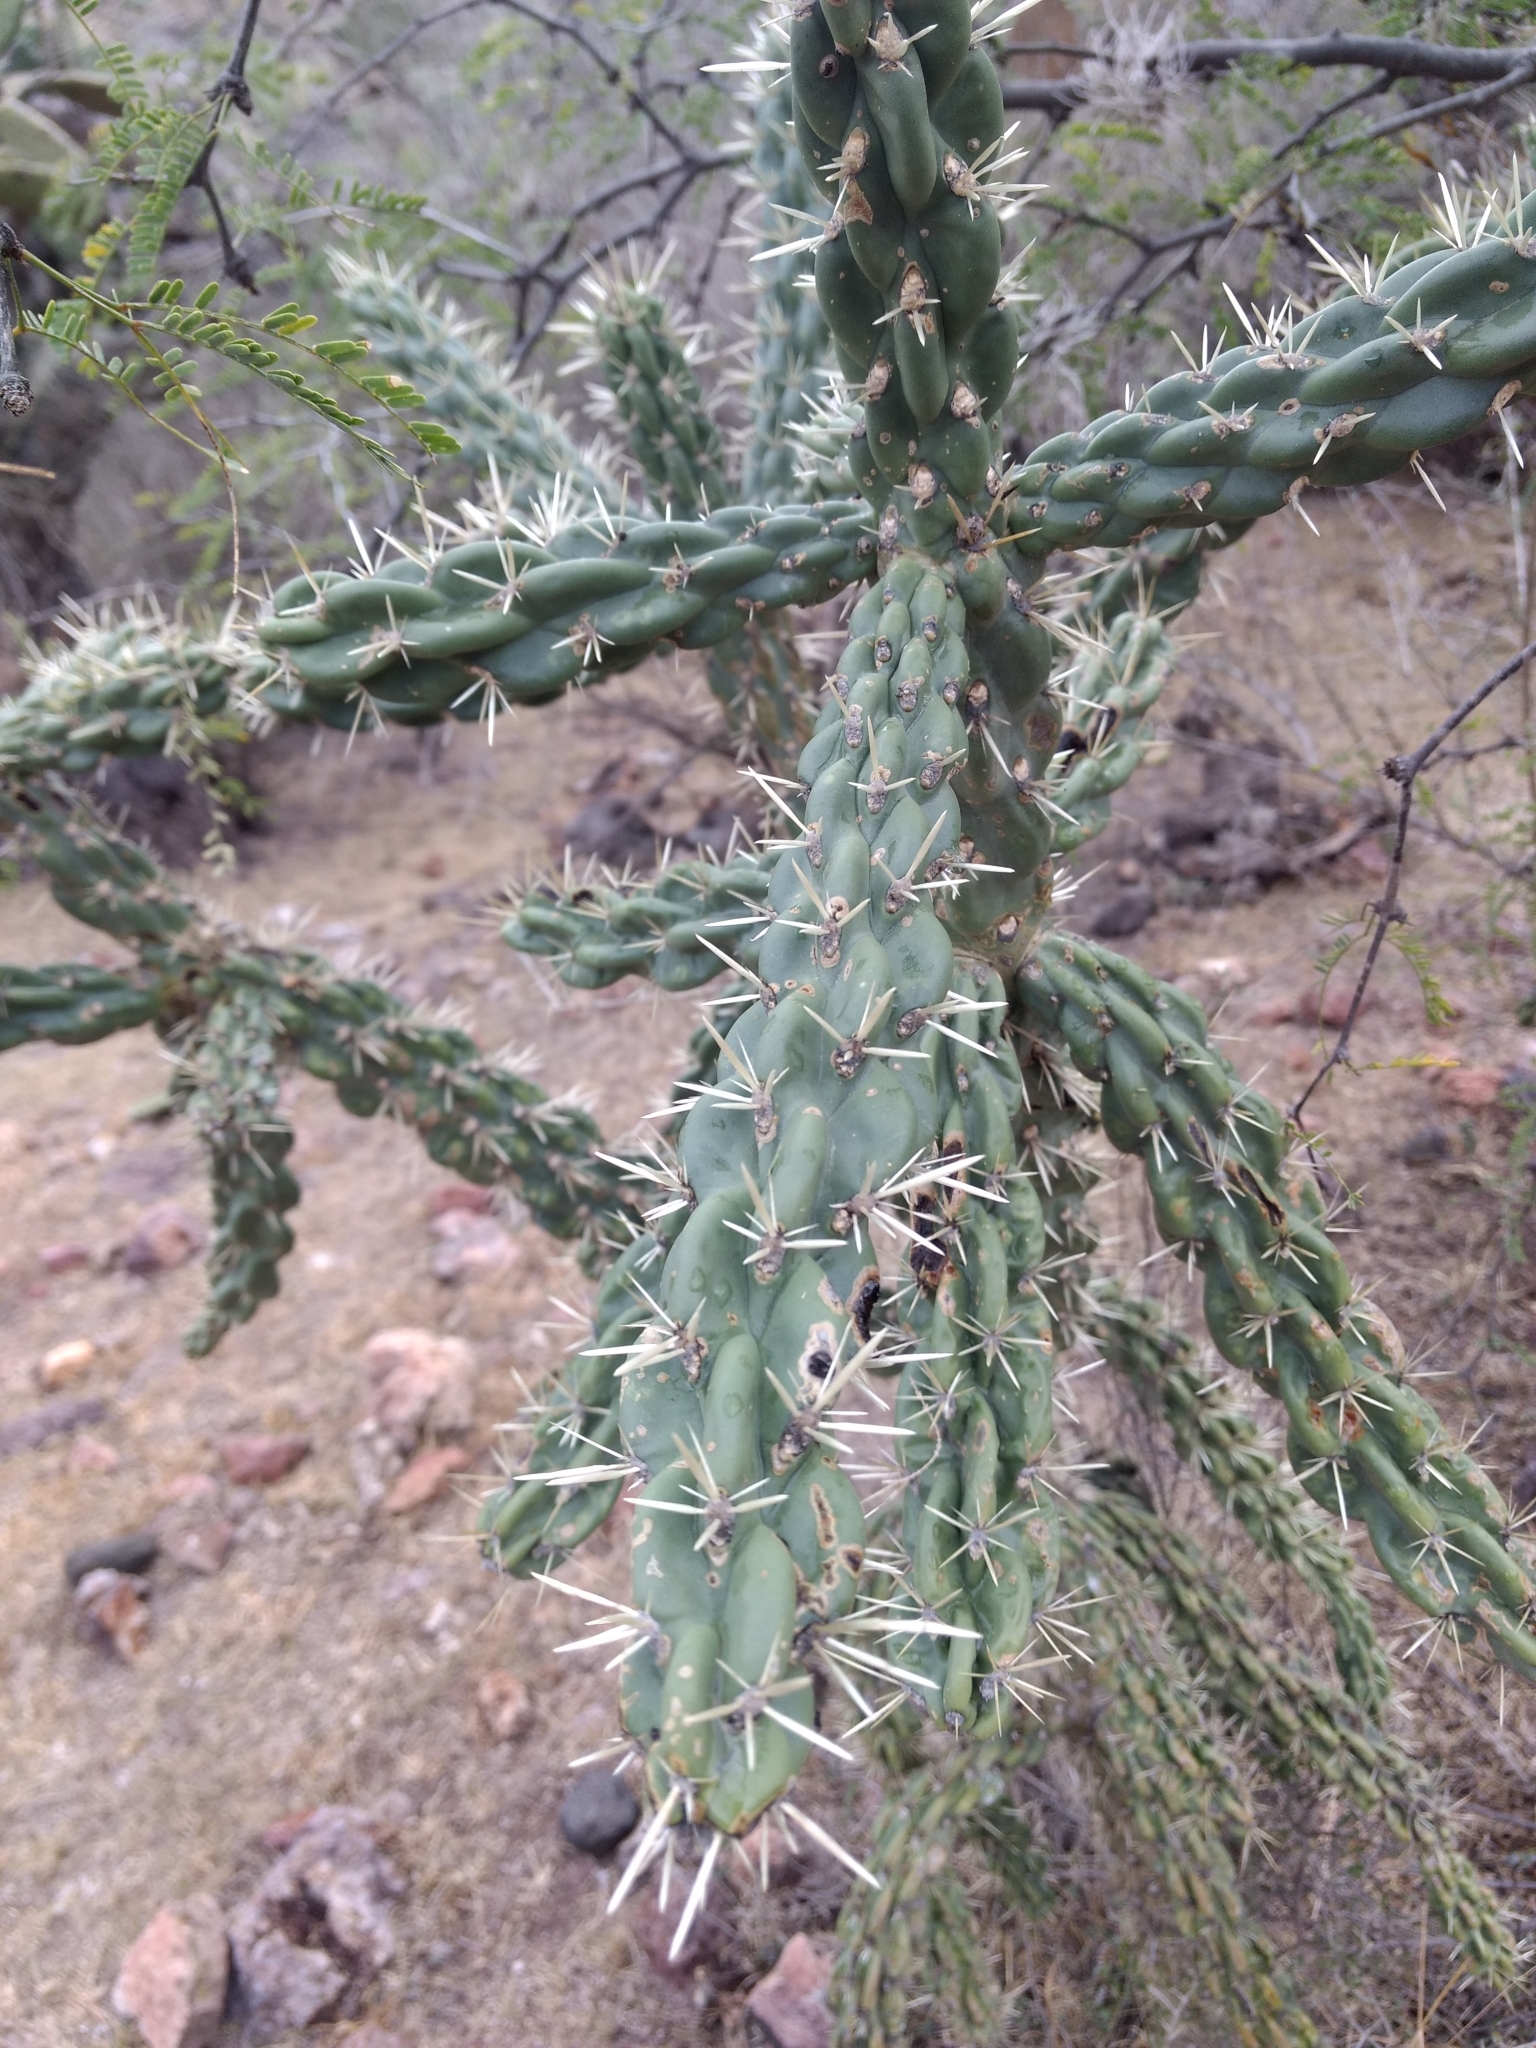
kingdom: Plantae
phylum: Tracheophyta
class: Magnoliopsida
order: Caryophyllales
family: Cactaceae
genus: Cylindropuntia
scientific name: Cylindropuntia imbricata
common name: Candelabrum cactus
